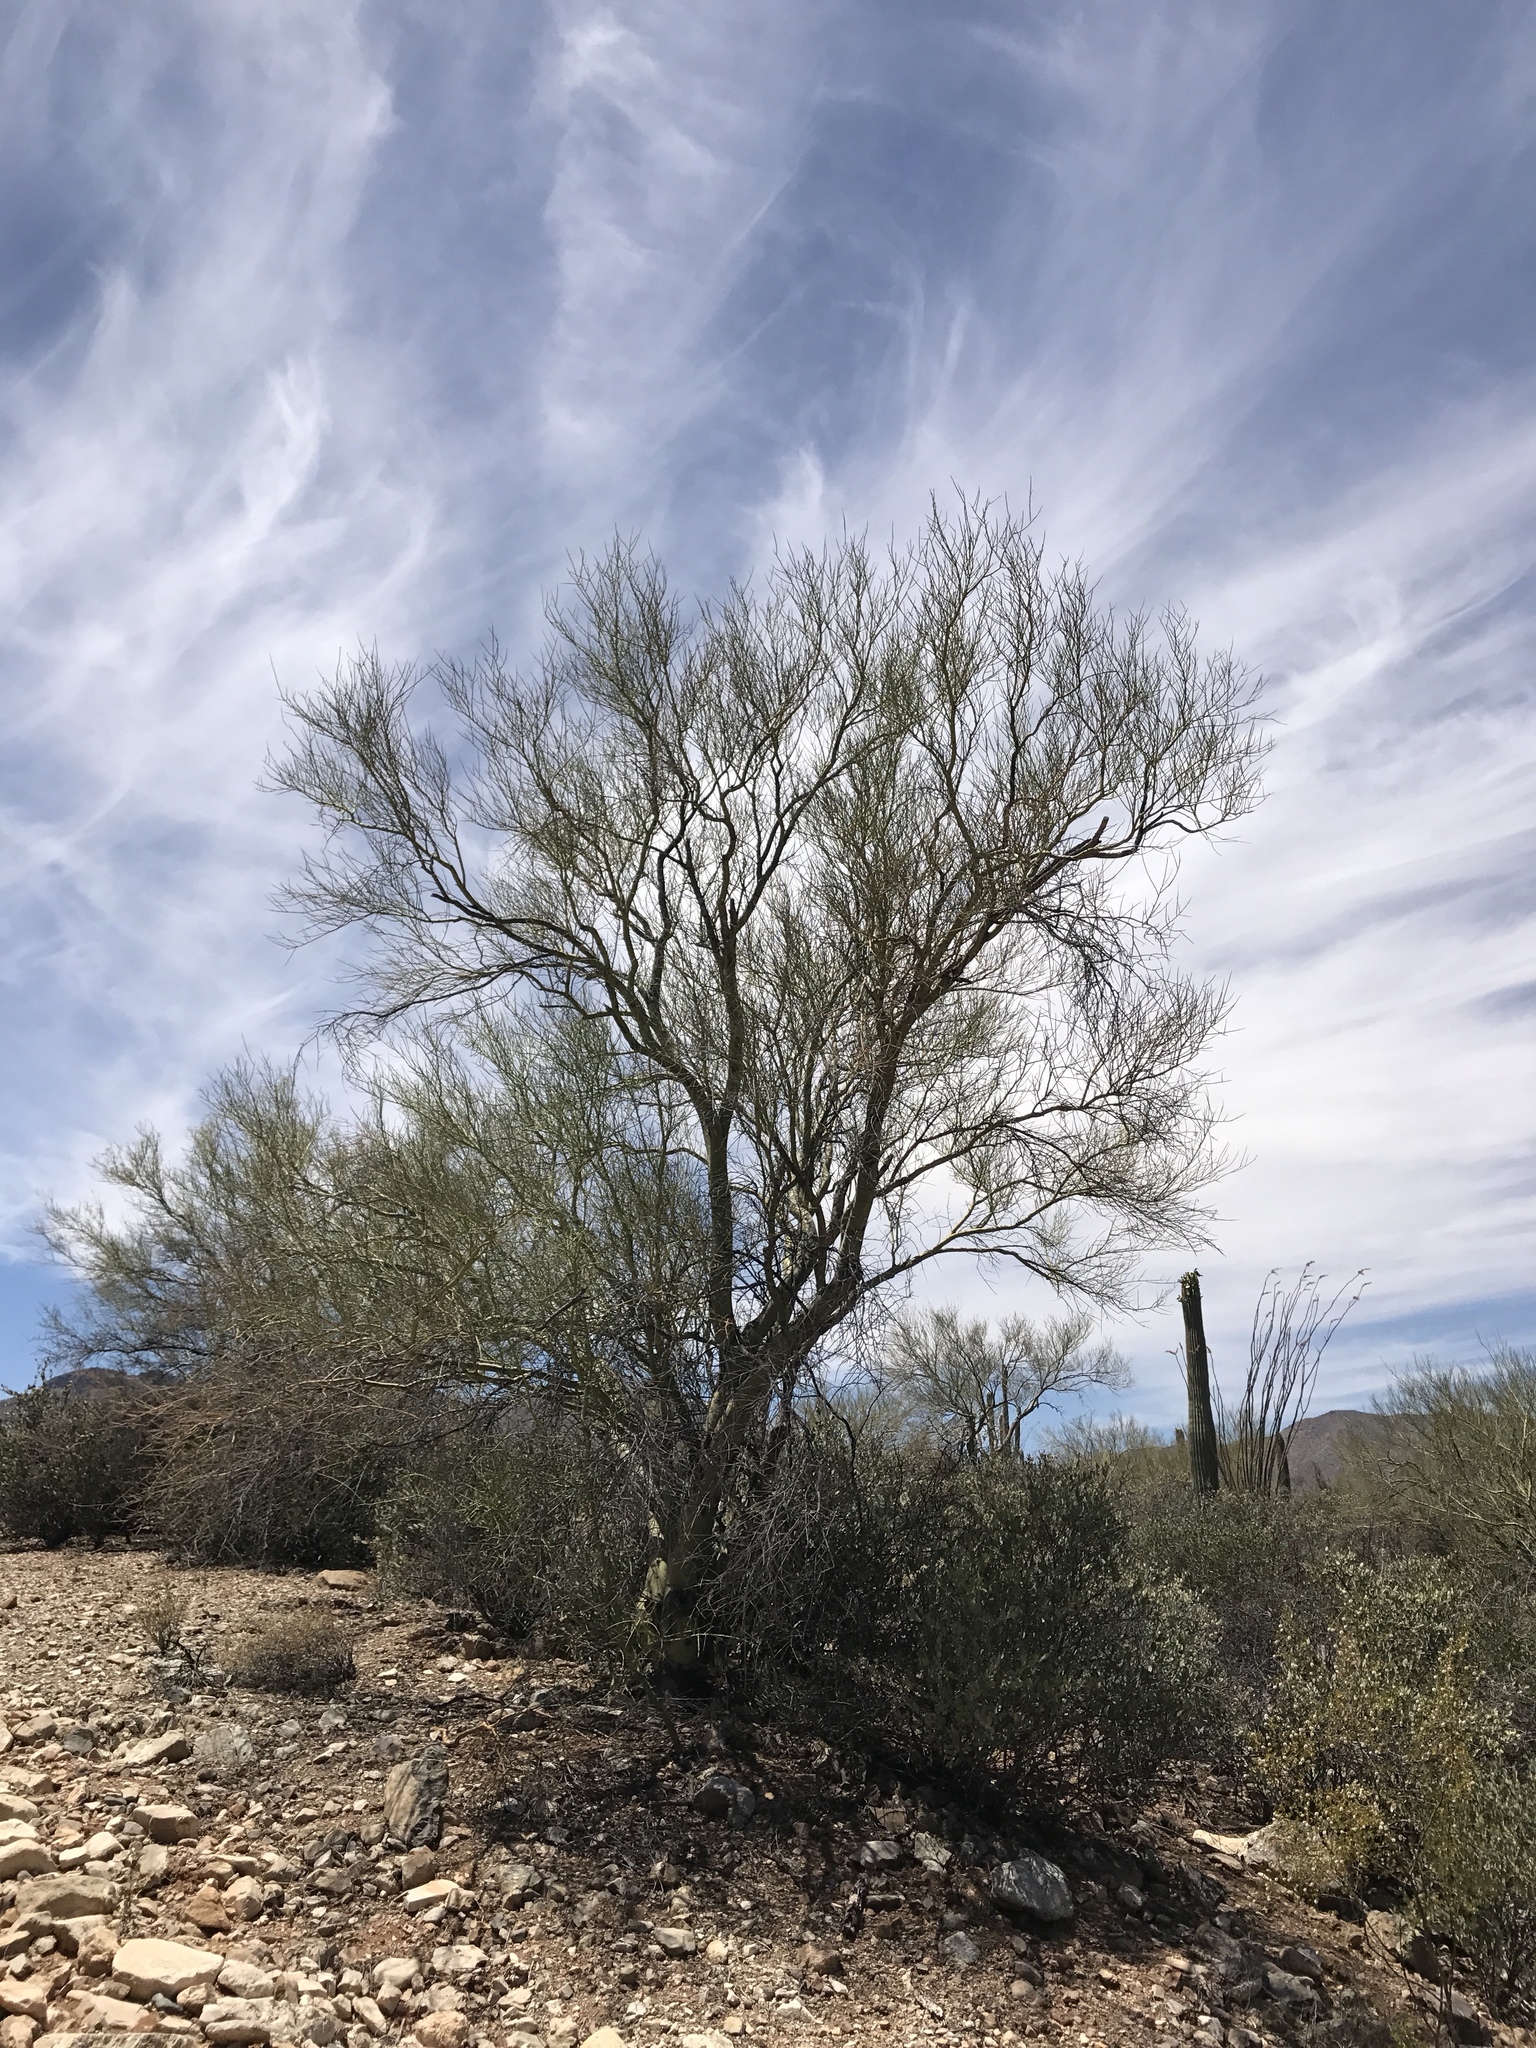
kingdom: Plantae
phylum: Tracheophyta
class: Magnoliopsida
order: Fabales
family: Fabaceae
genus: Parkinsonia
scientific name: Parkinsonia microphylla
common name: Yellow paloverde
